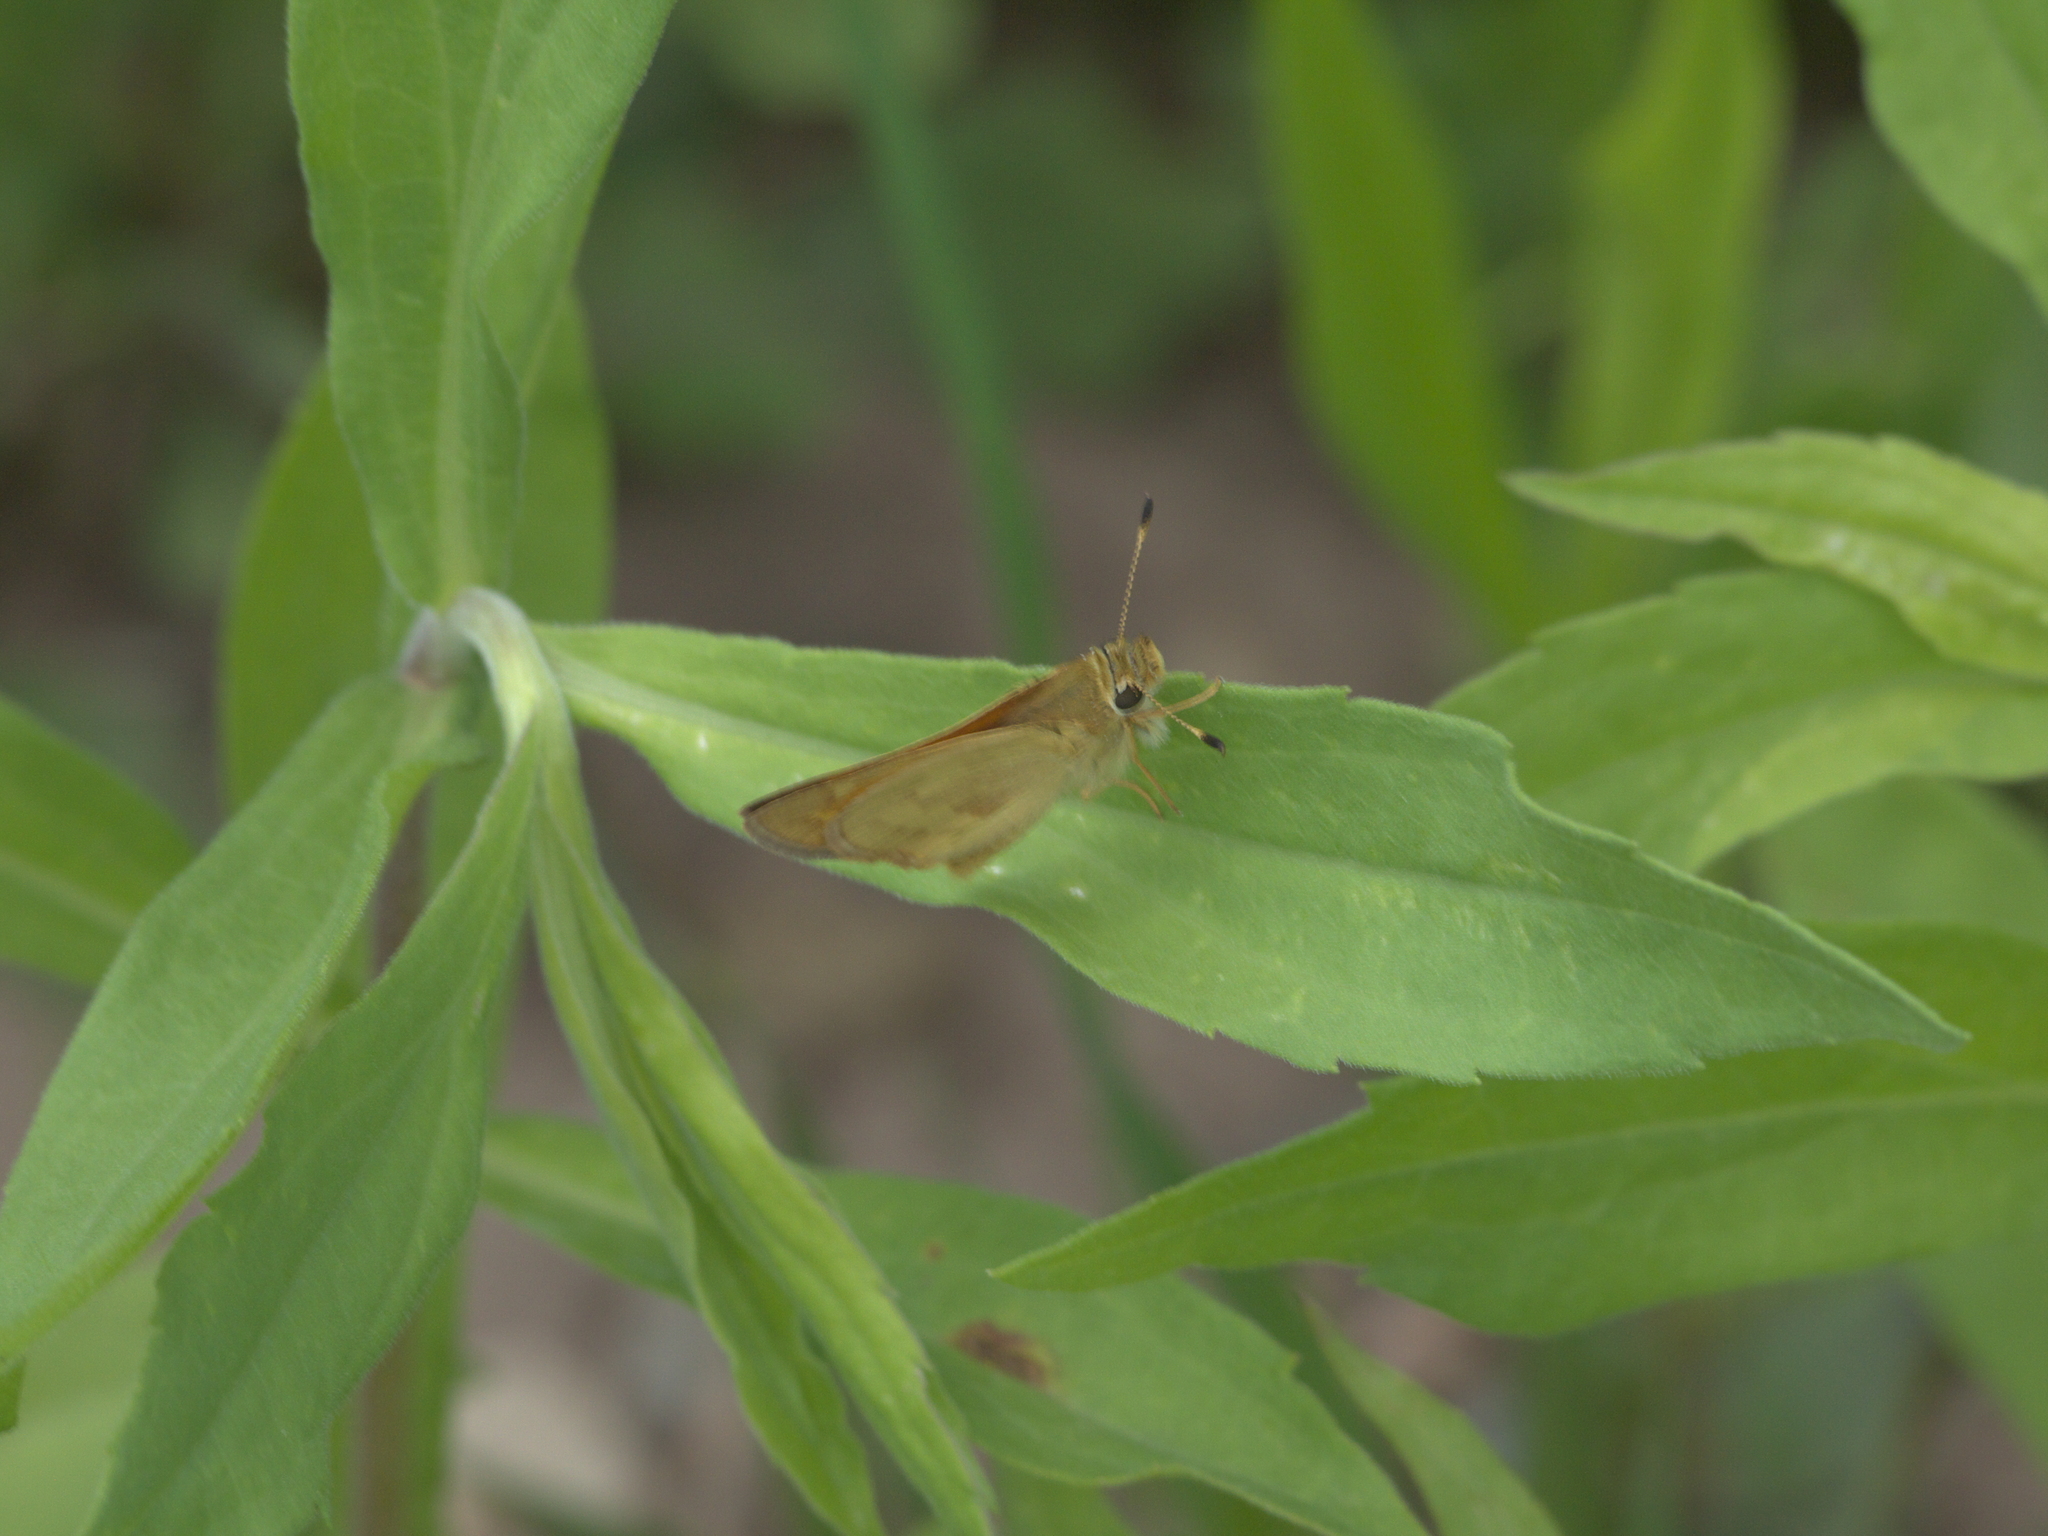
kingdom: Animalia
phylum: Arthropoda
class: Insecta
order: Lepidoptera
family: Hesperiidae
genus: Ochlodes
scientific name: Ochlodes sylvanoides
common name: Woodland skipper
